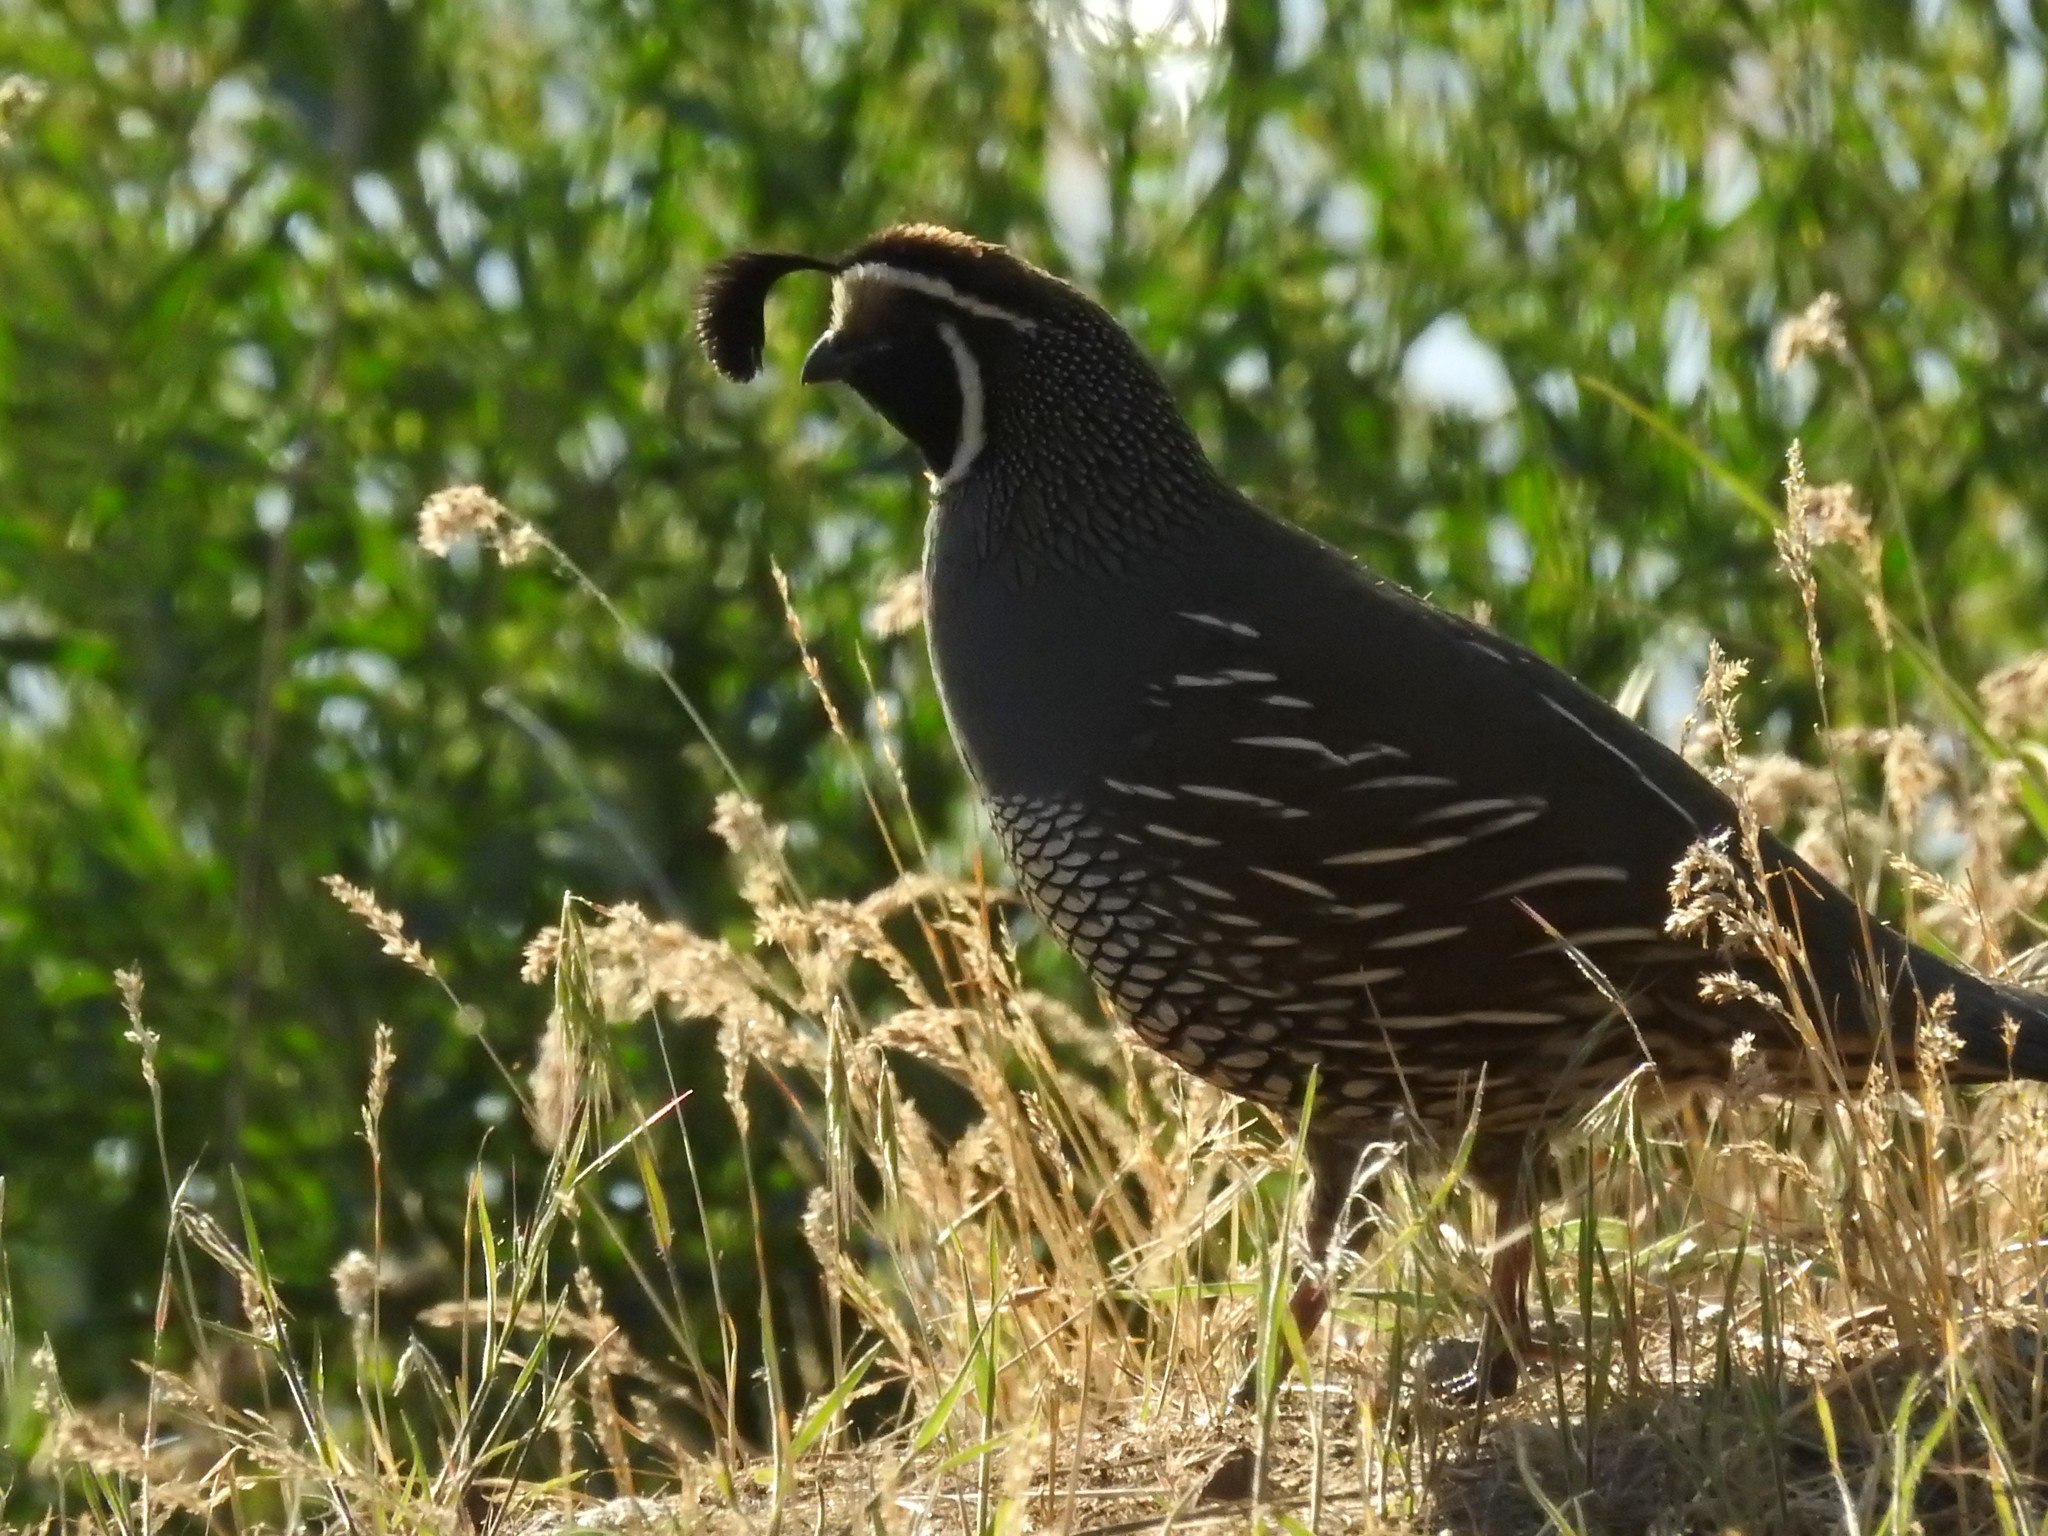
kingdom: Animalia
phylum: Chordata
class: Aves
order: Galliformes
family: Odontophoridae
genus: Callipepla
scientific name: Callipepla californica
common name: California quail
